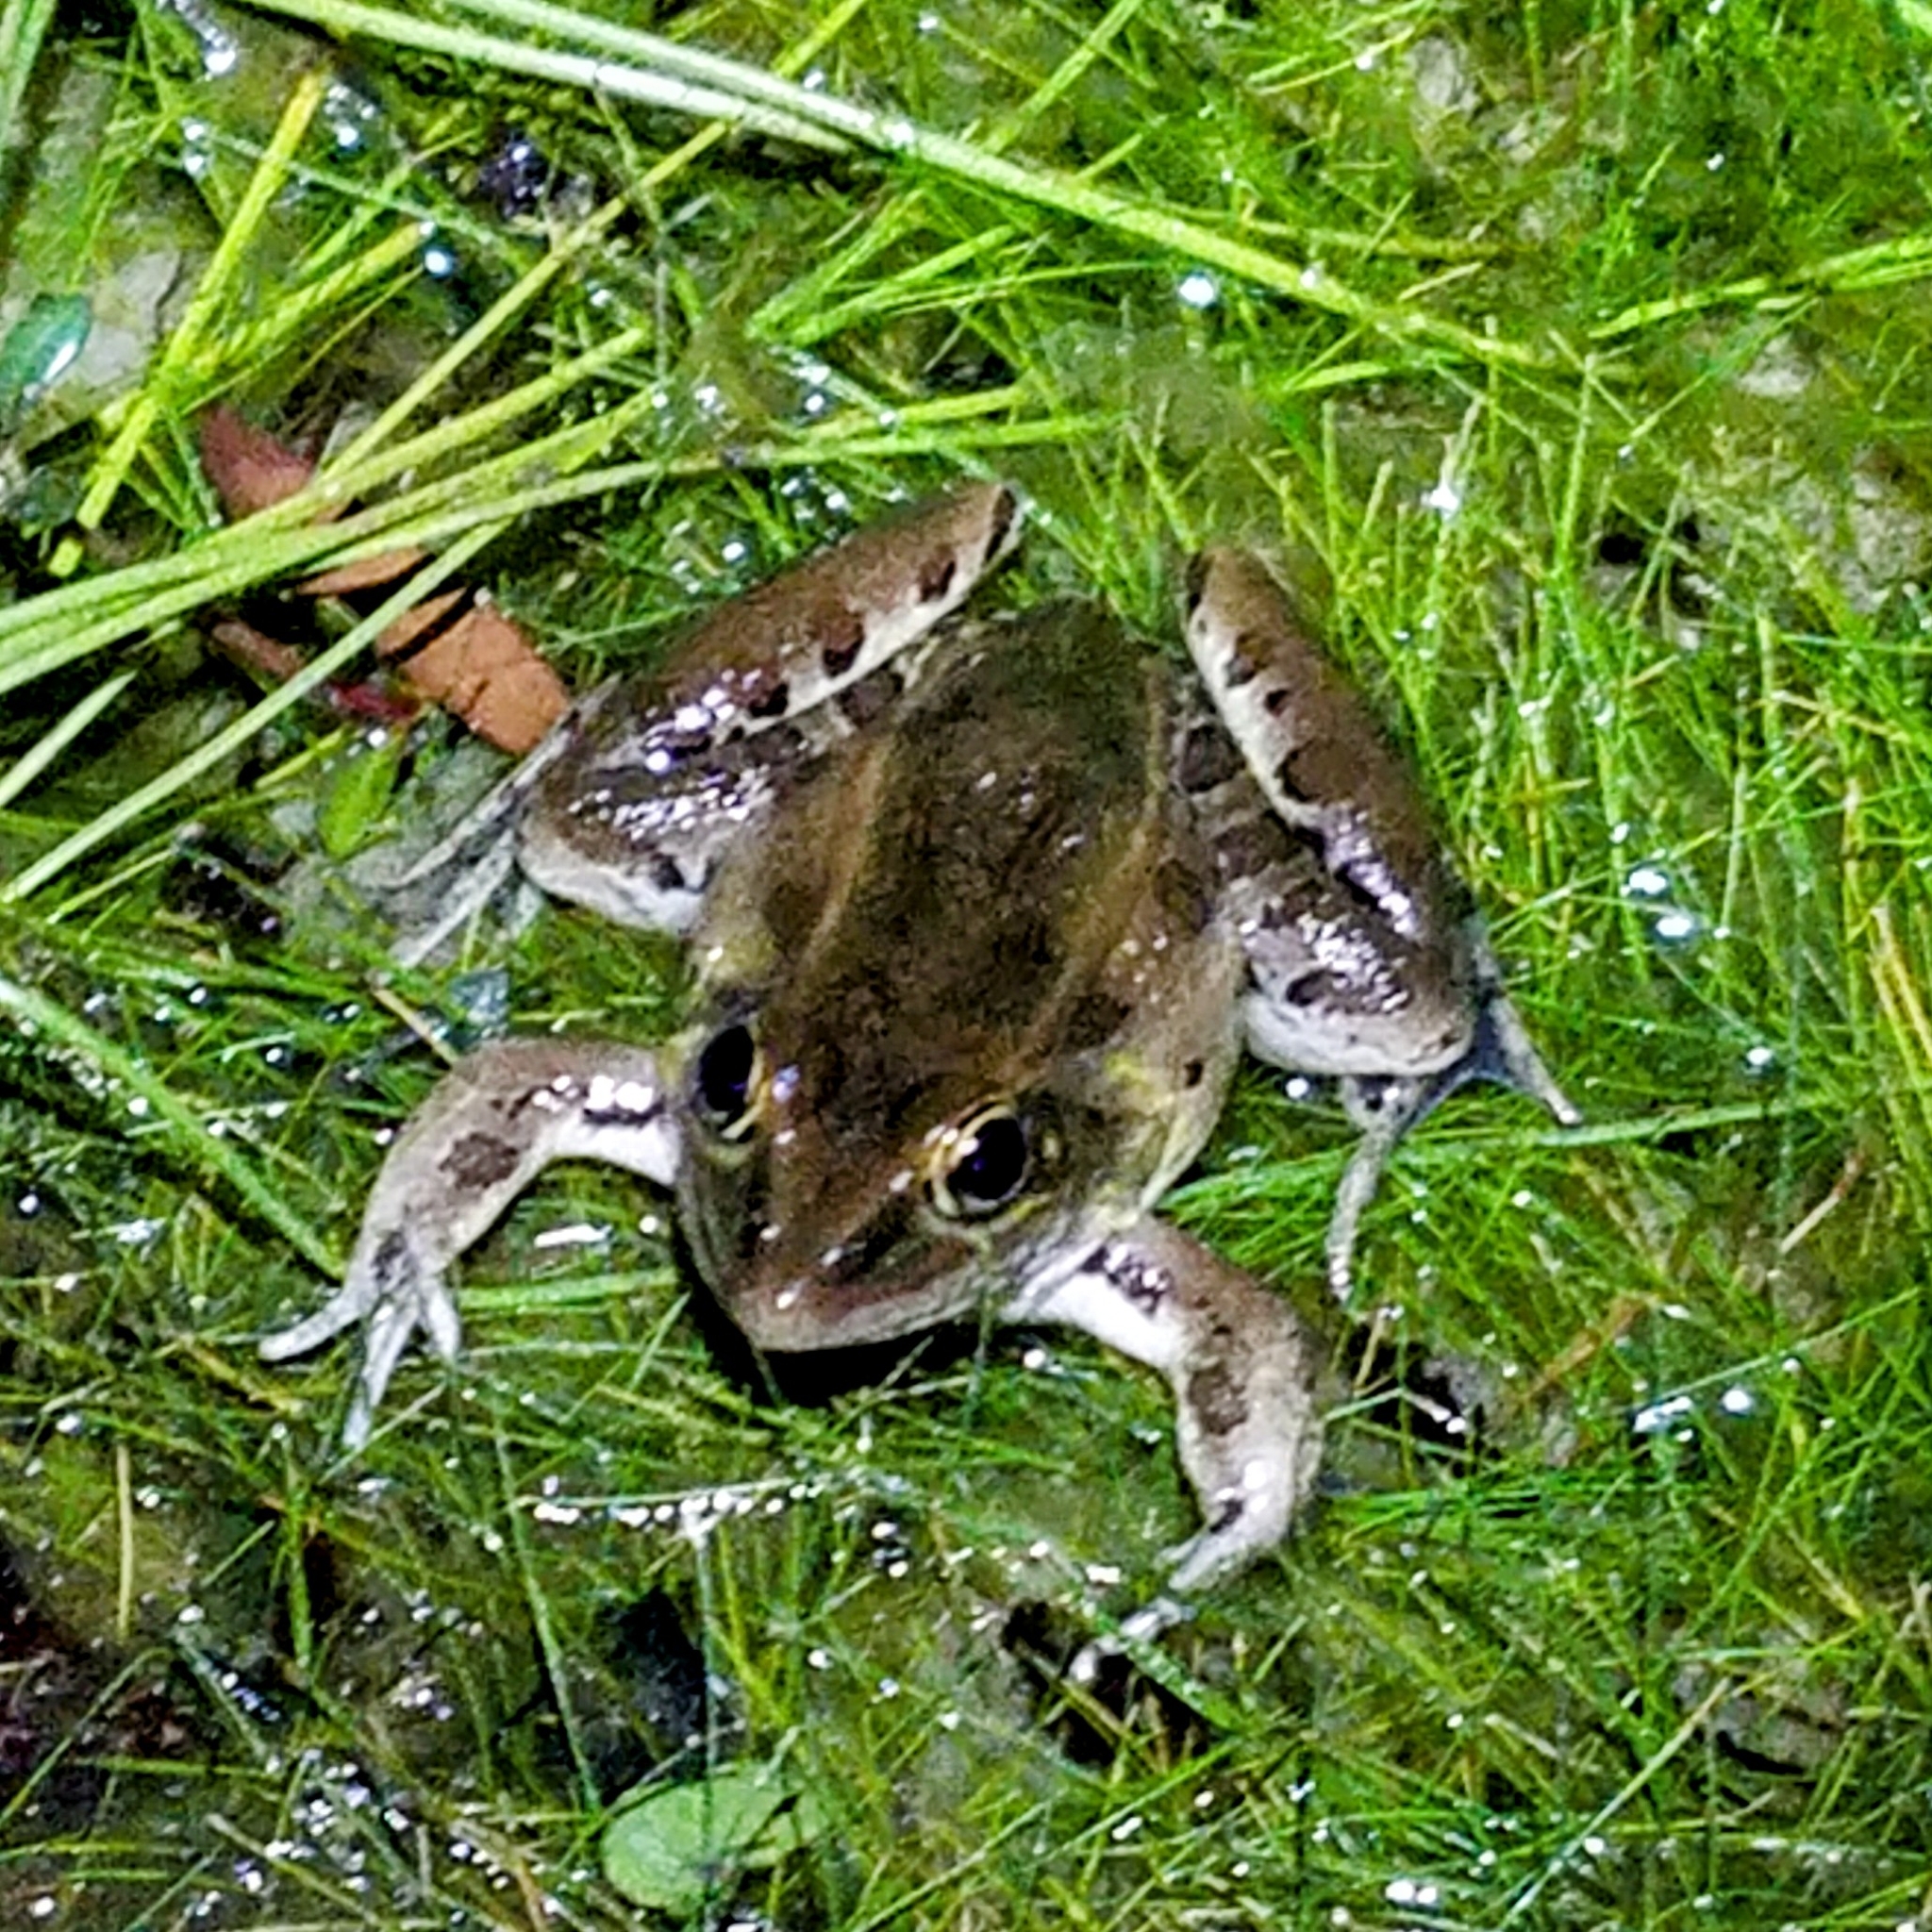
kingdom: Animalia
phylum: Chordata
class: Amphibia
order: Anura
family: Ranidae
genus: Lithobates
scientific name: Lithobates sphenocephalus
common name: Southern leopard frog
